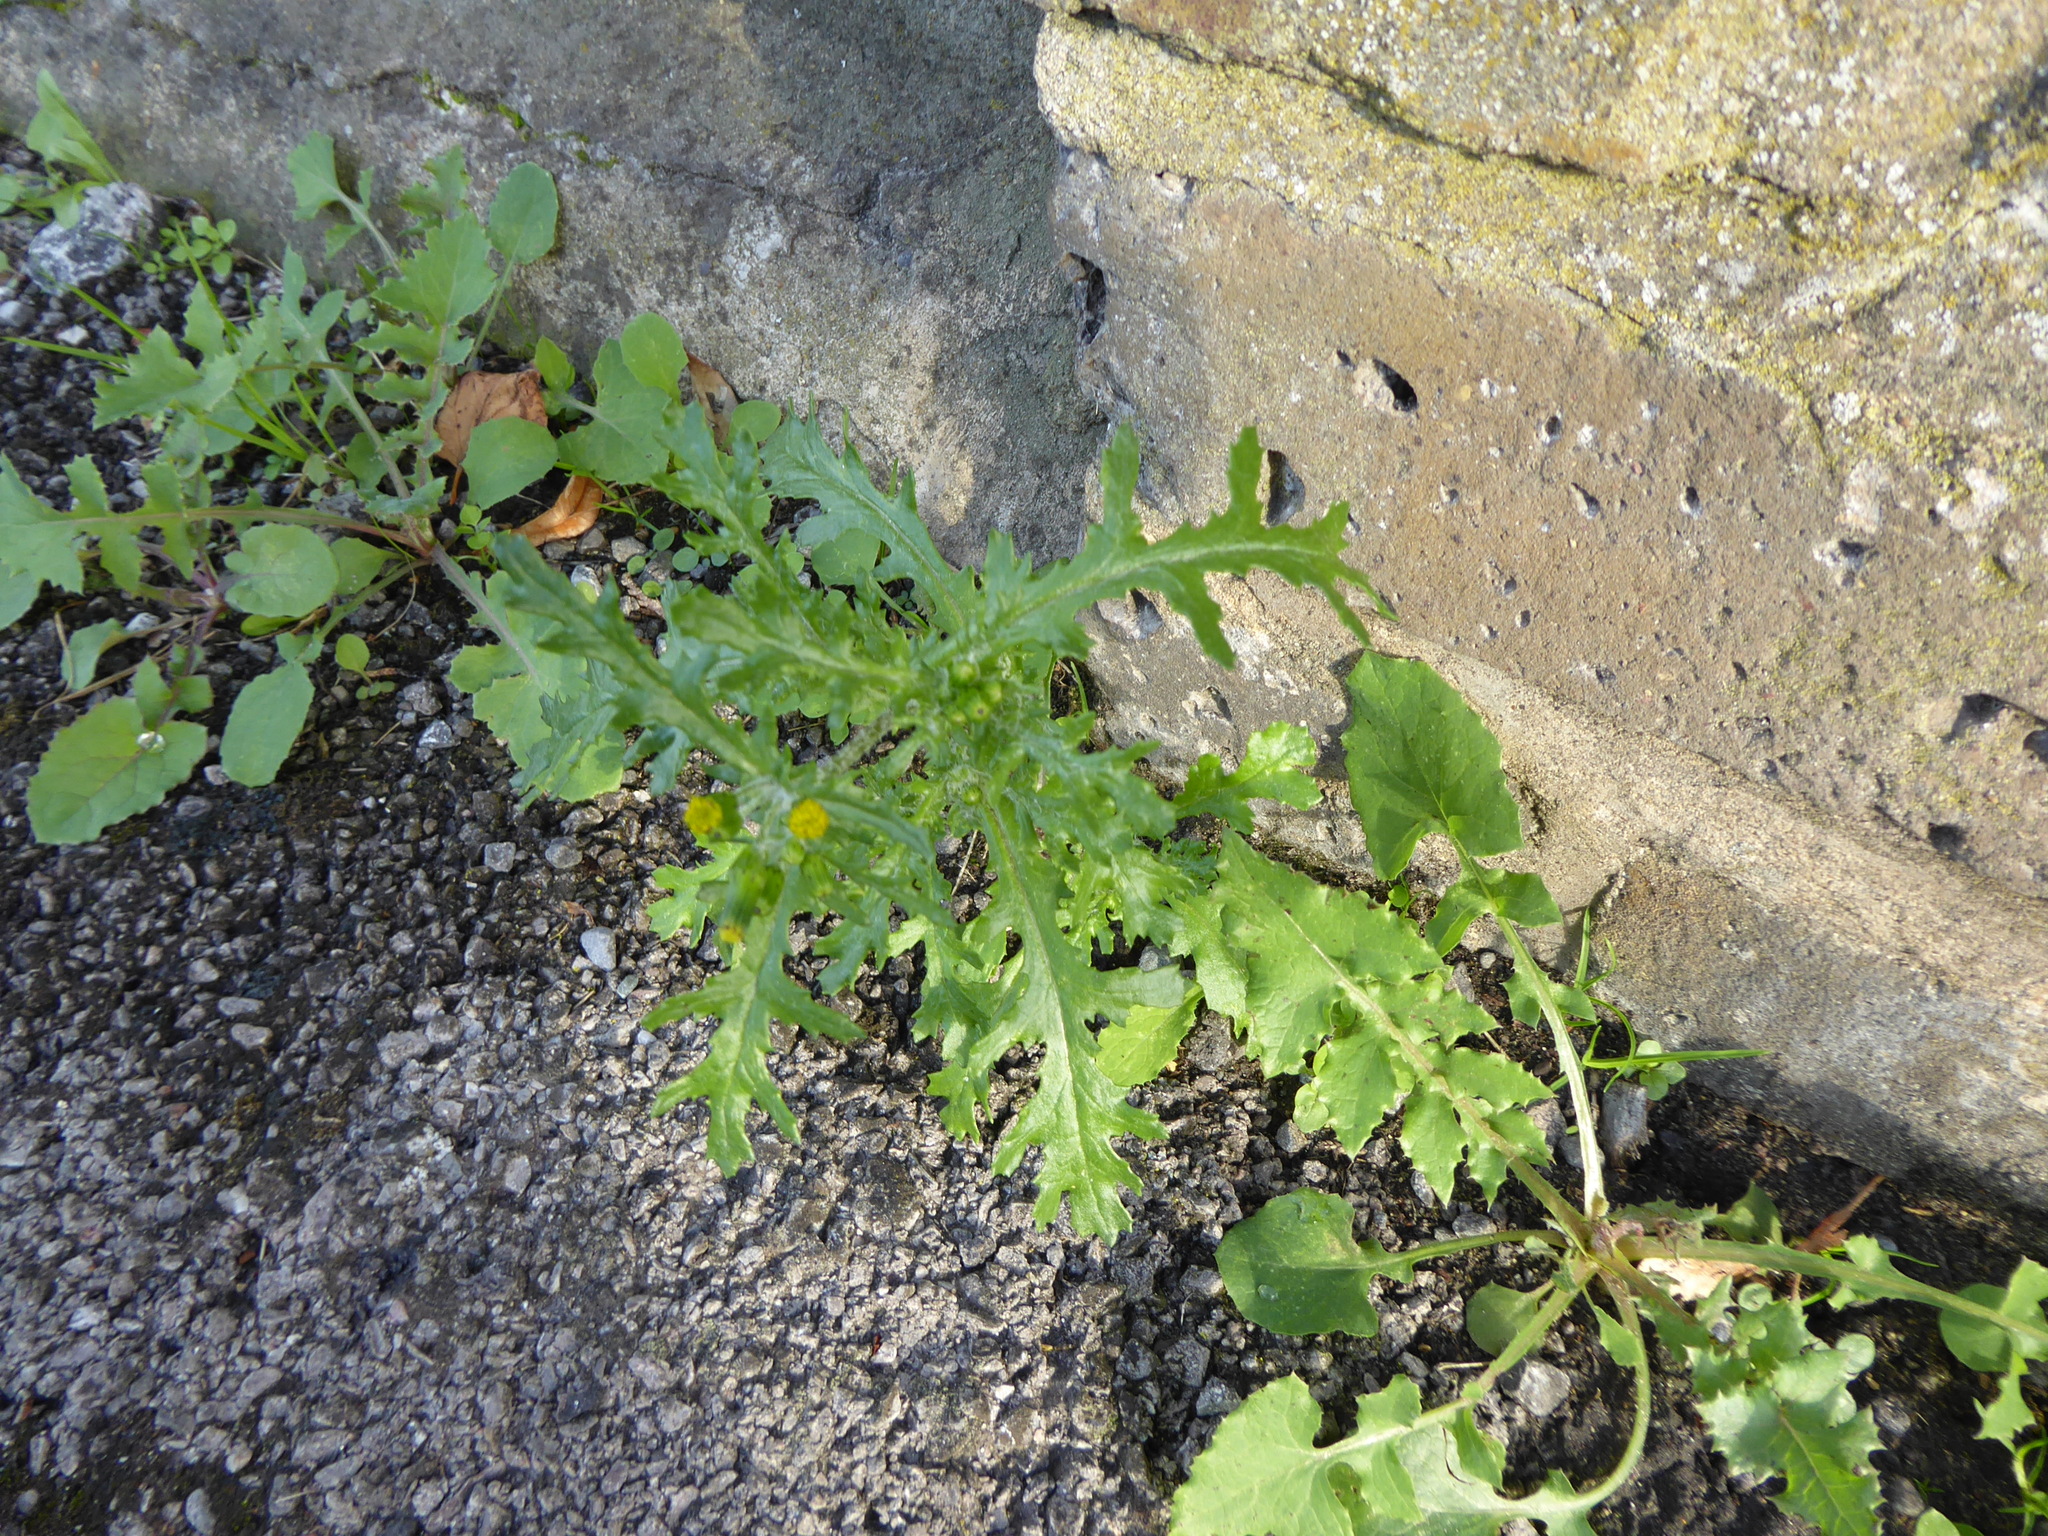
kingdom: Plantae
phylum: Tracheophyta
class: Magnoliopsida
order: Asterales
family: Asteraceae
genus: Senecio
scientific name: Senecio vulgaris
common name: Old-man-in-the-spring
